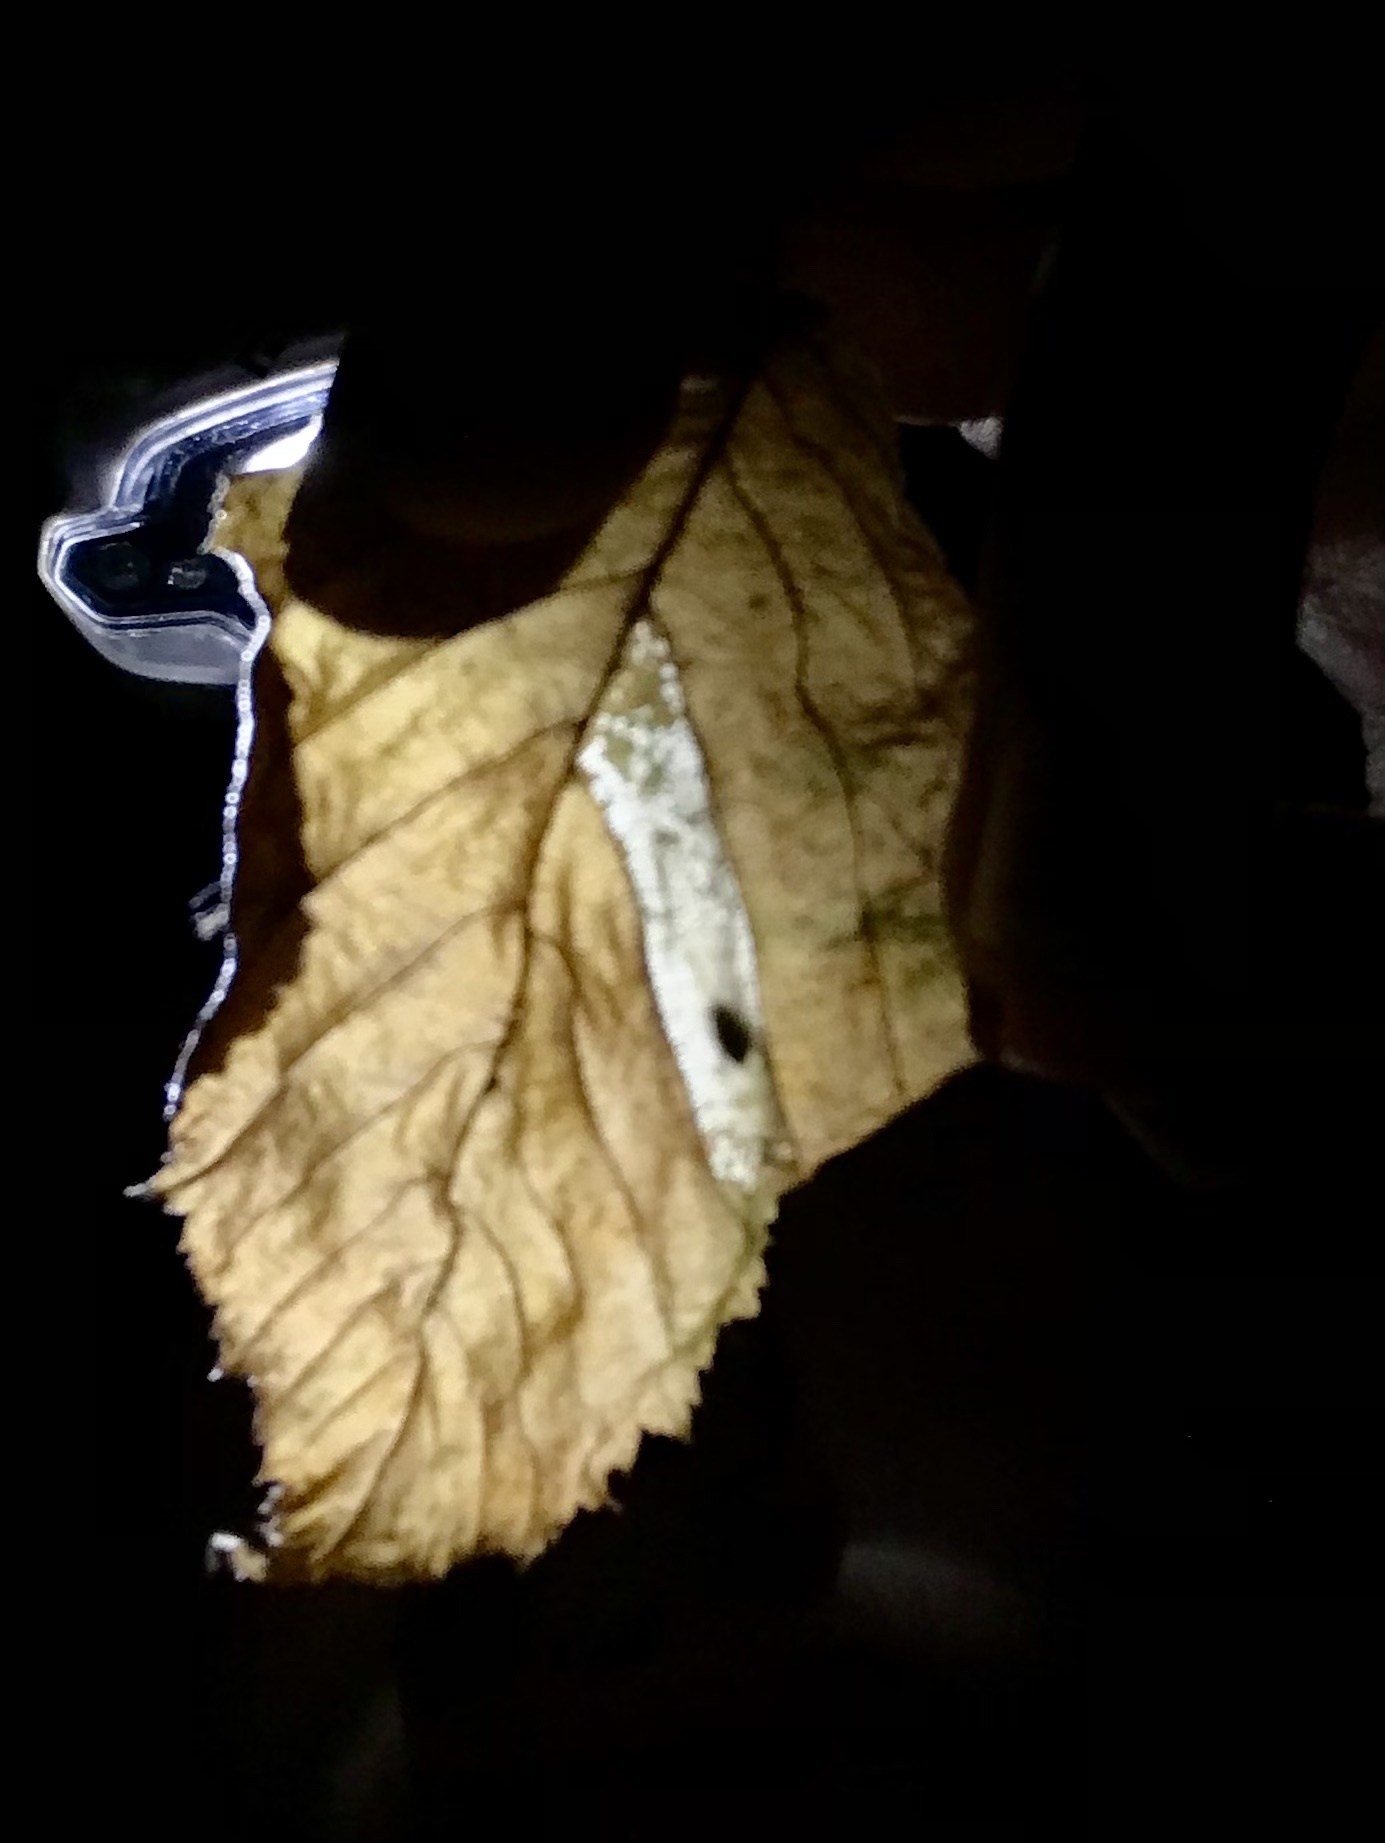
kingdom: Animalia
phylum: Arthropoda
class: Insecta
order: Lepidoptera
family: Gracillariidae
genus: Phyllonorycter
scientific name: Phyllonorycter ostryaefoliella
